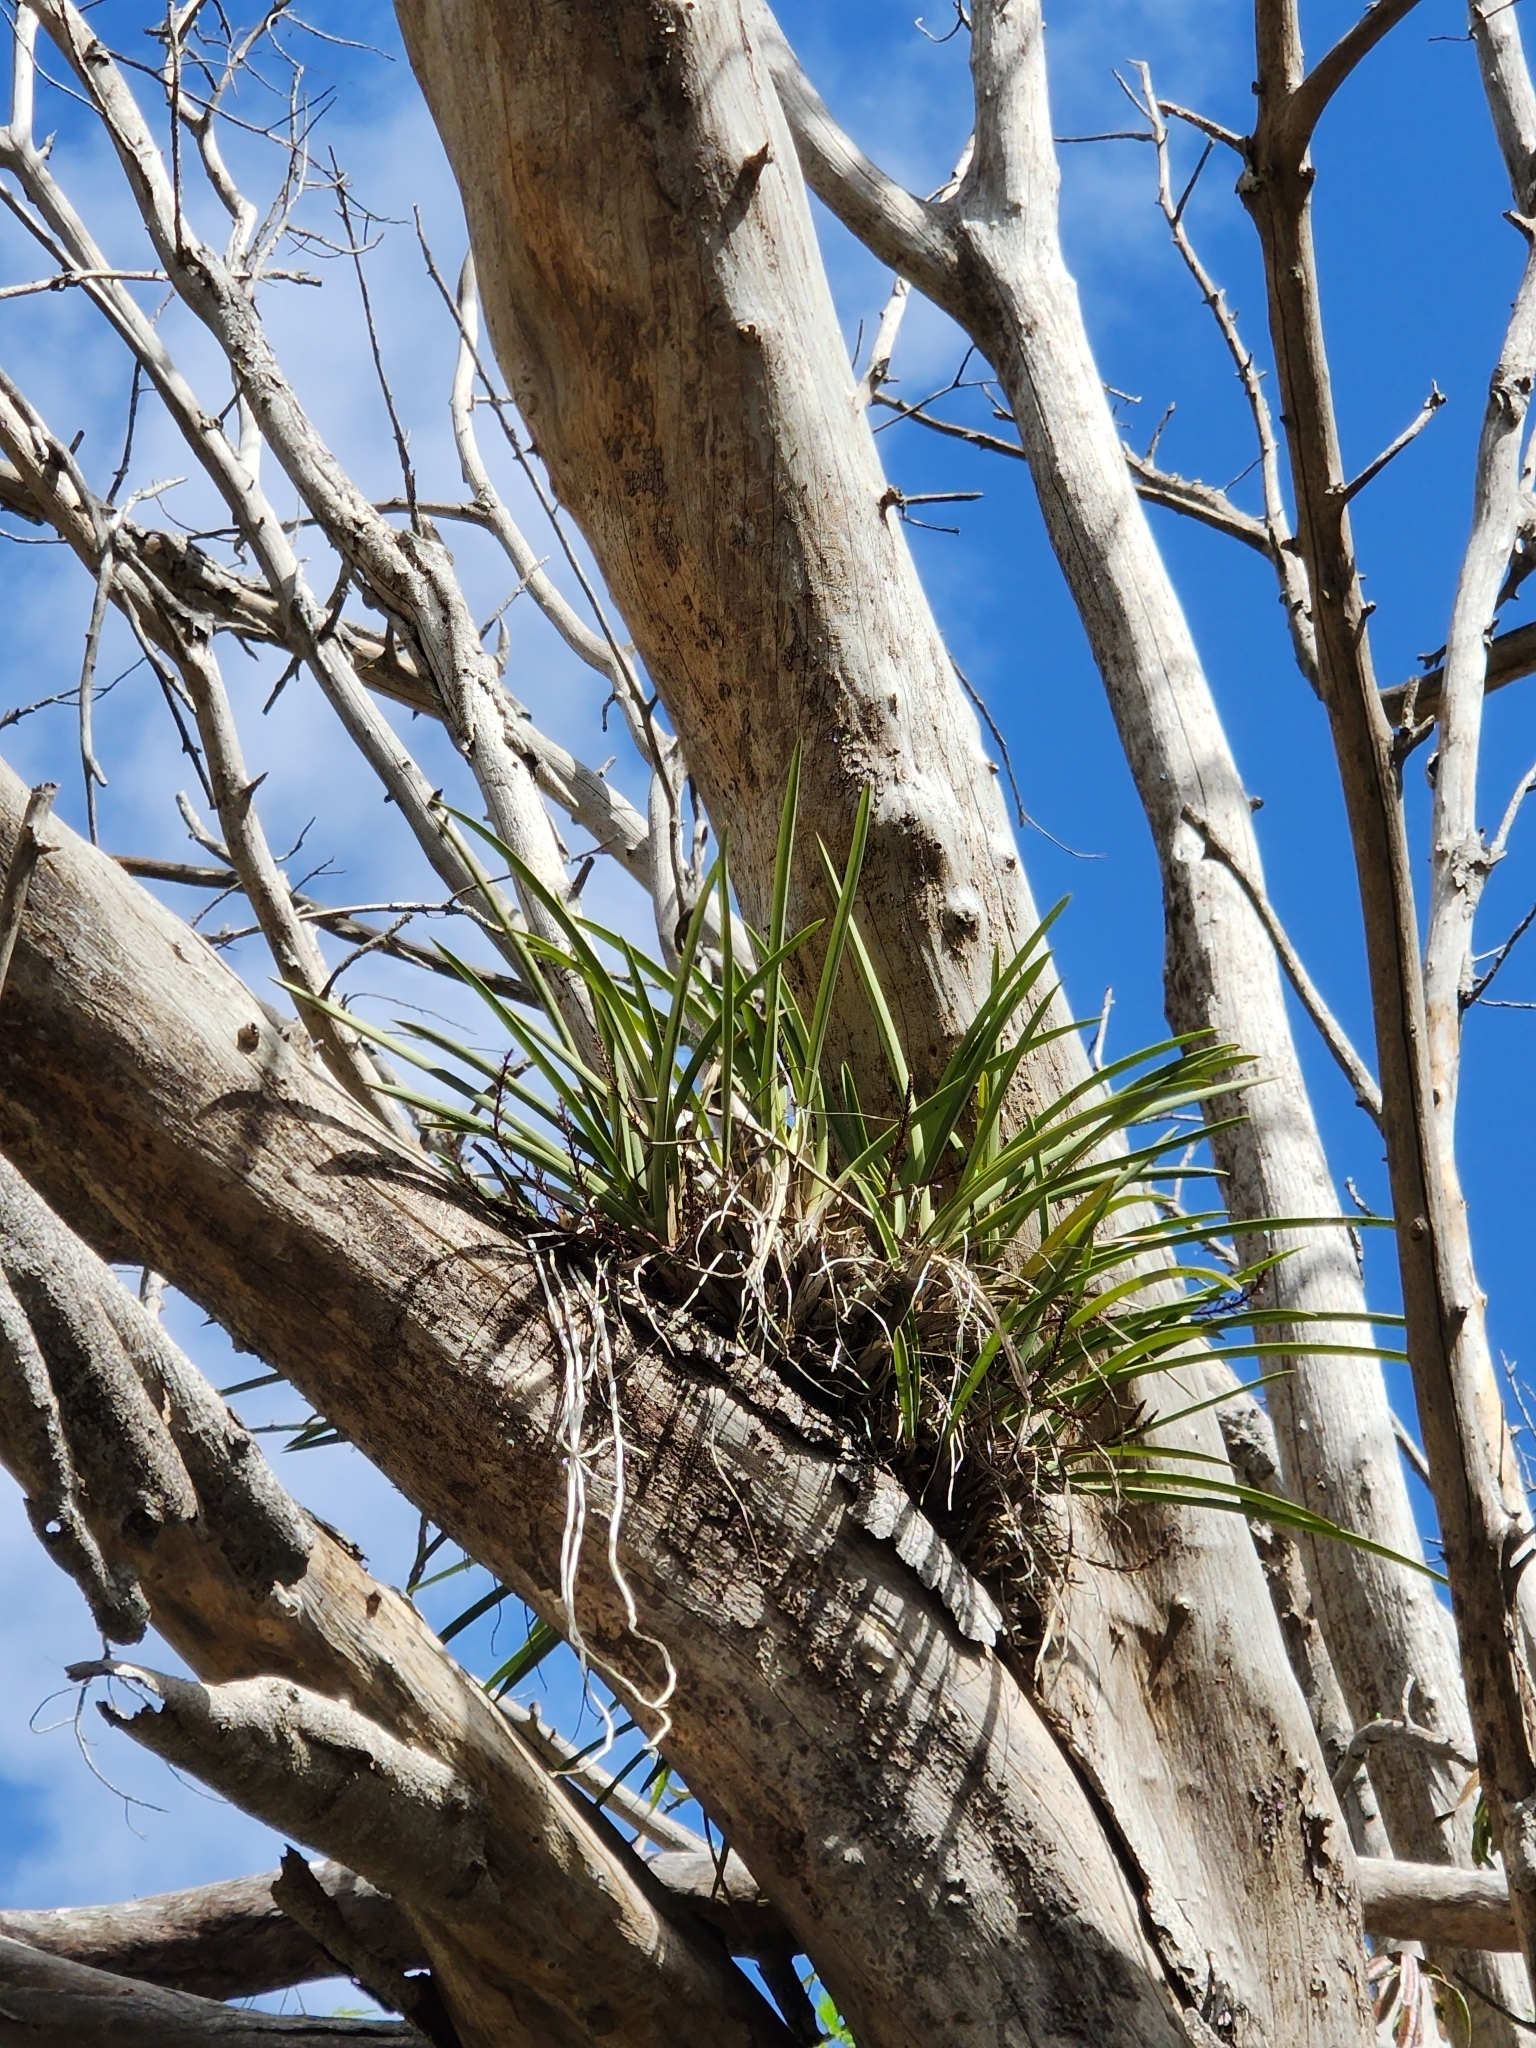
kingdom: Plantae
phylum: Tracheophyta
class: Liliopsida
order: Asparagales
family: Orchidaceae
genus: Cymbidium
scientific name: Cymbidium canaliculatum
